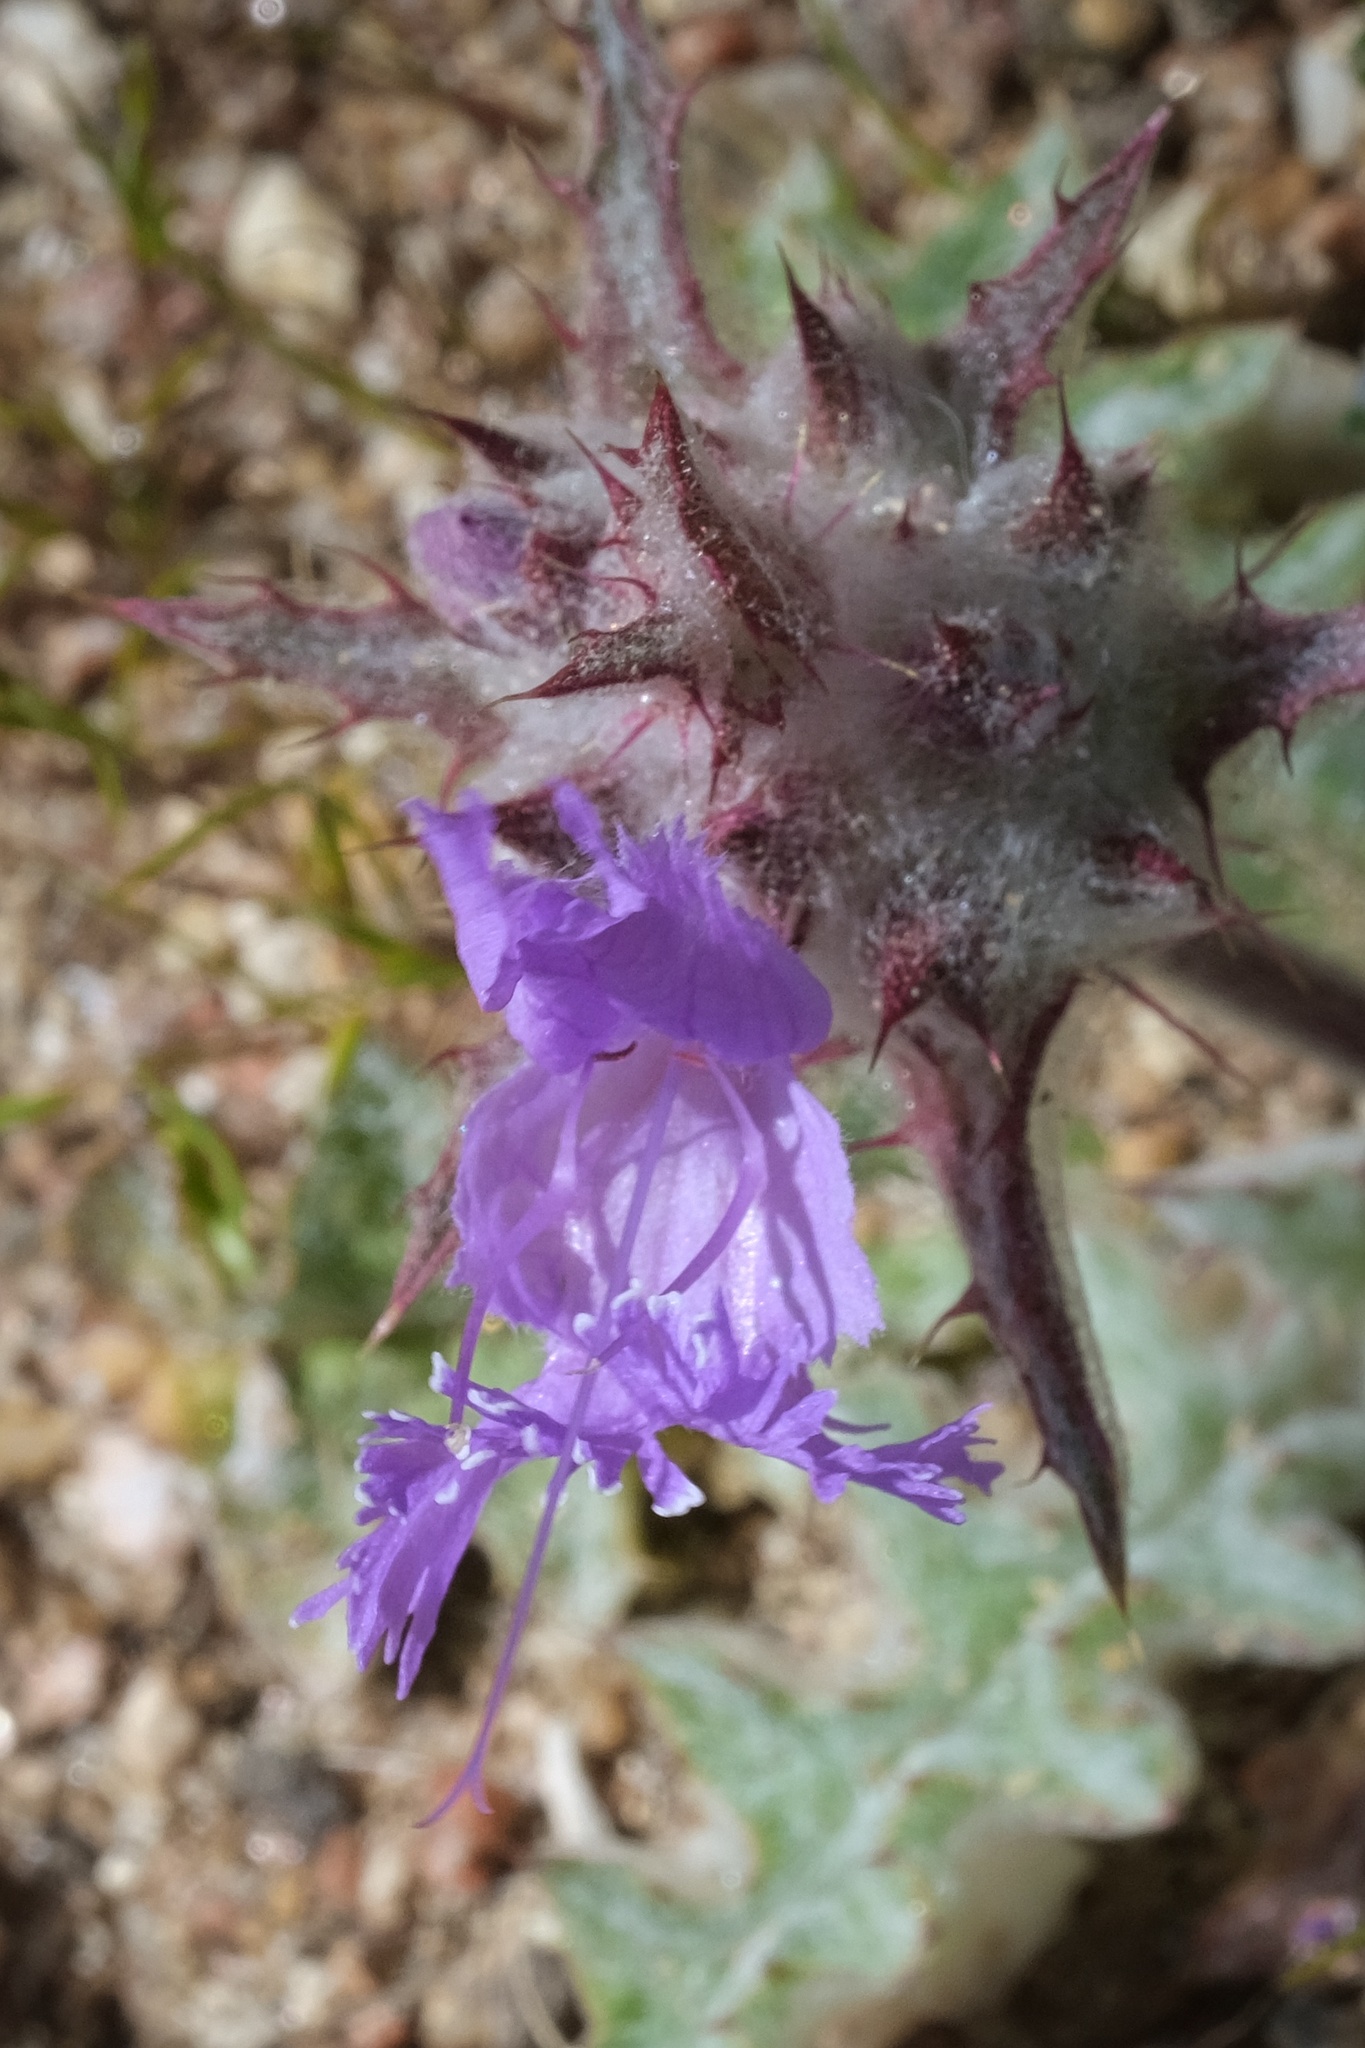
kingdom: Plantae
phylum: Tracheophyta
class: Magnoliopsida
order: Lamiales
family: Lamiaceae
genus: Salvia
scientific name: Salvia carduacea
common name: Thistle sage
